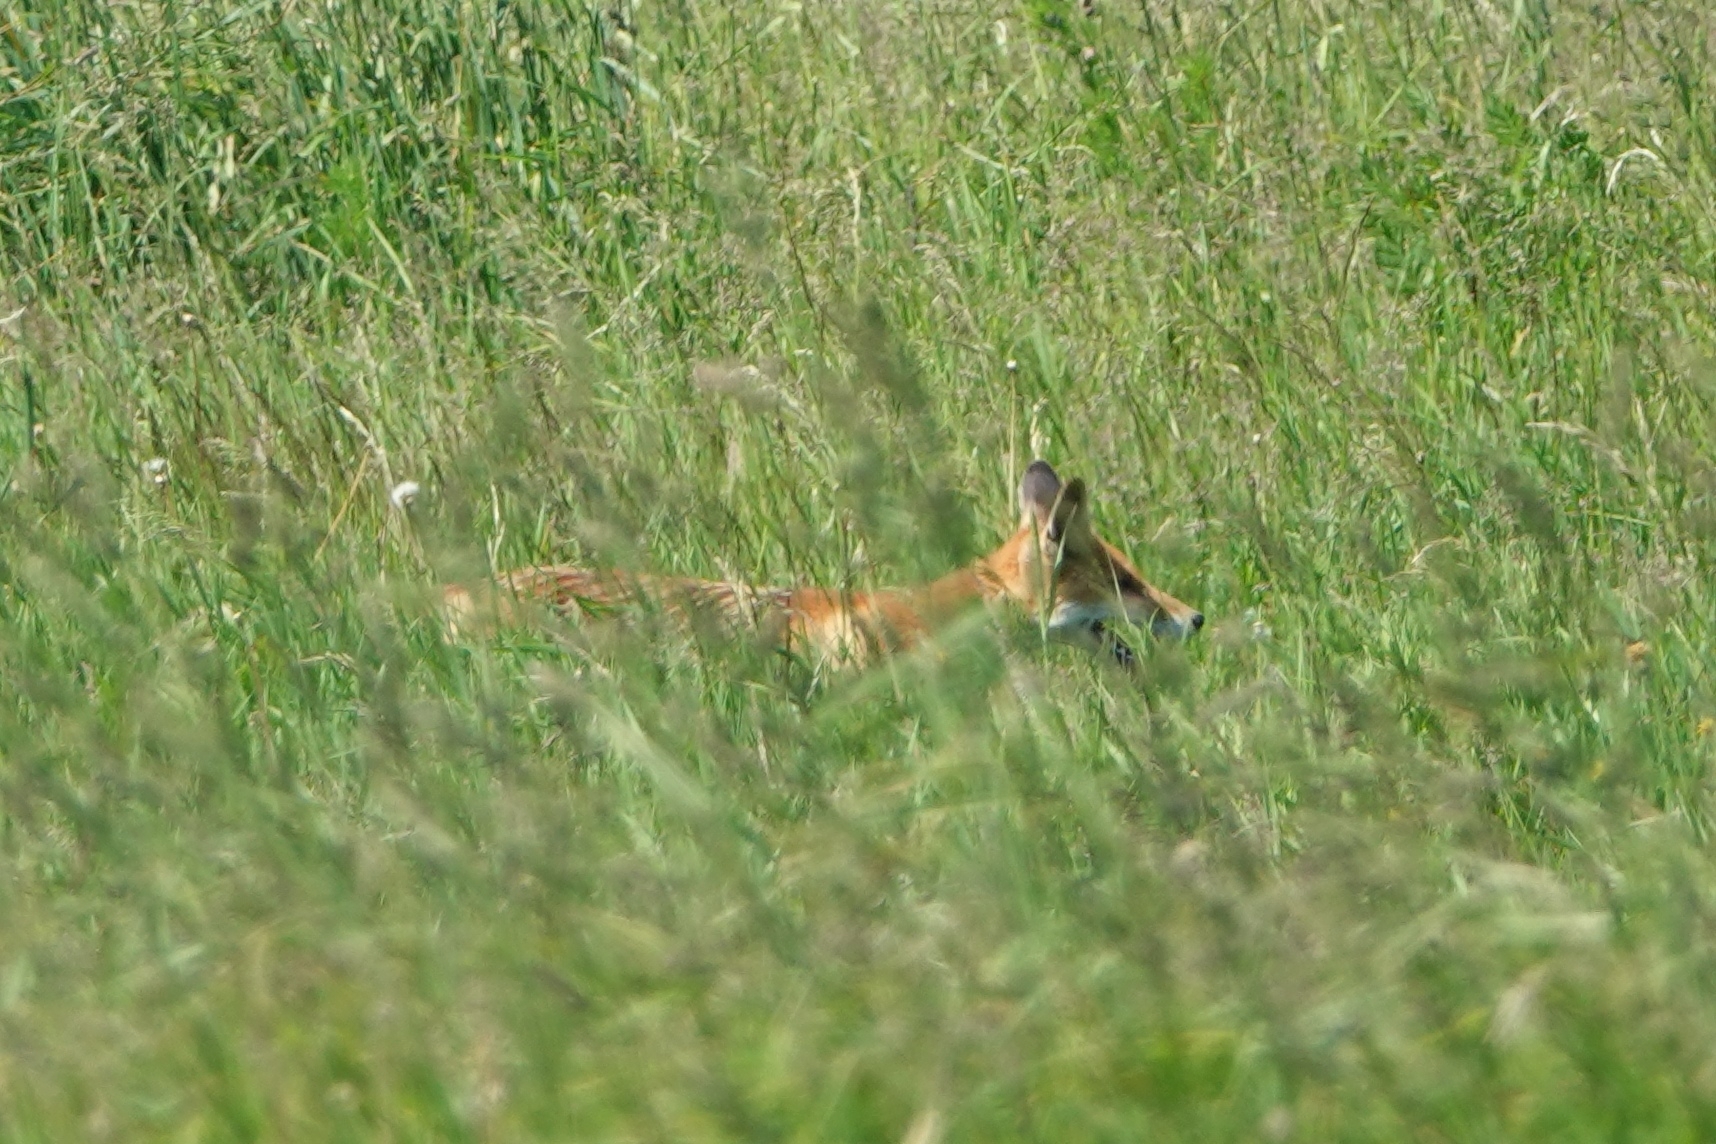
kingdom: Animalia
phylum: Chordata
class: Mammalia
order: Carnivora
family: Canidae
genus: Vulpes
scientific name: Vulpes vulpes
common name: Red fox
